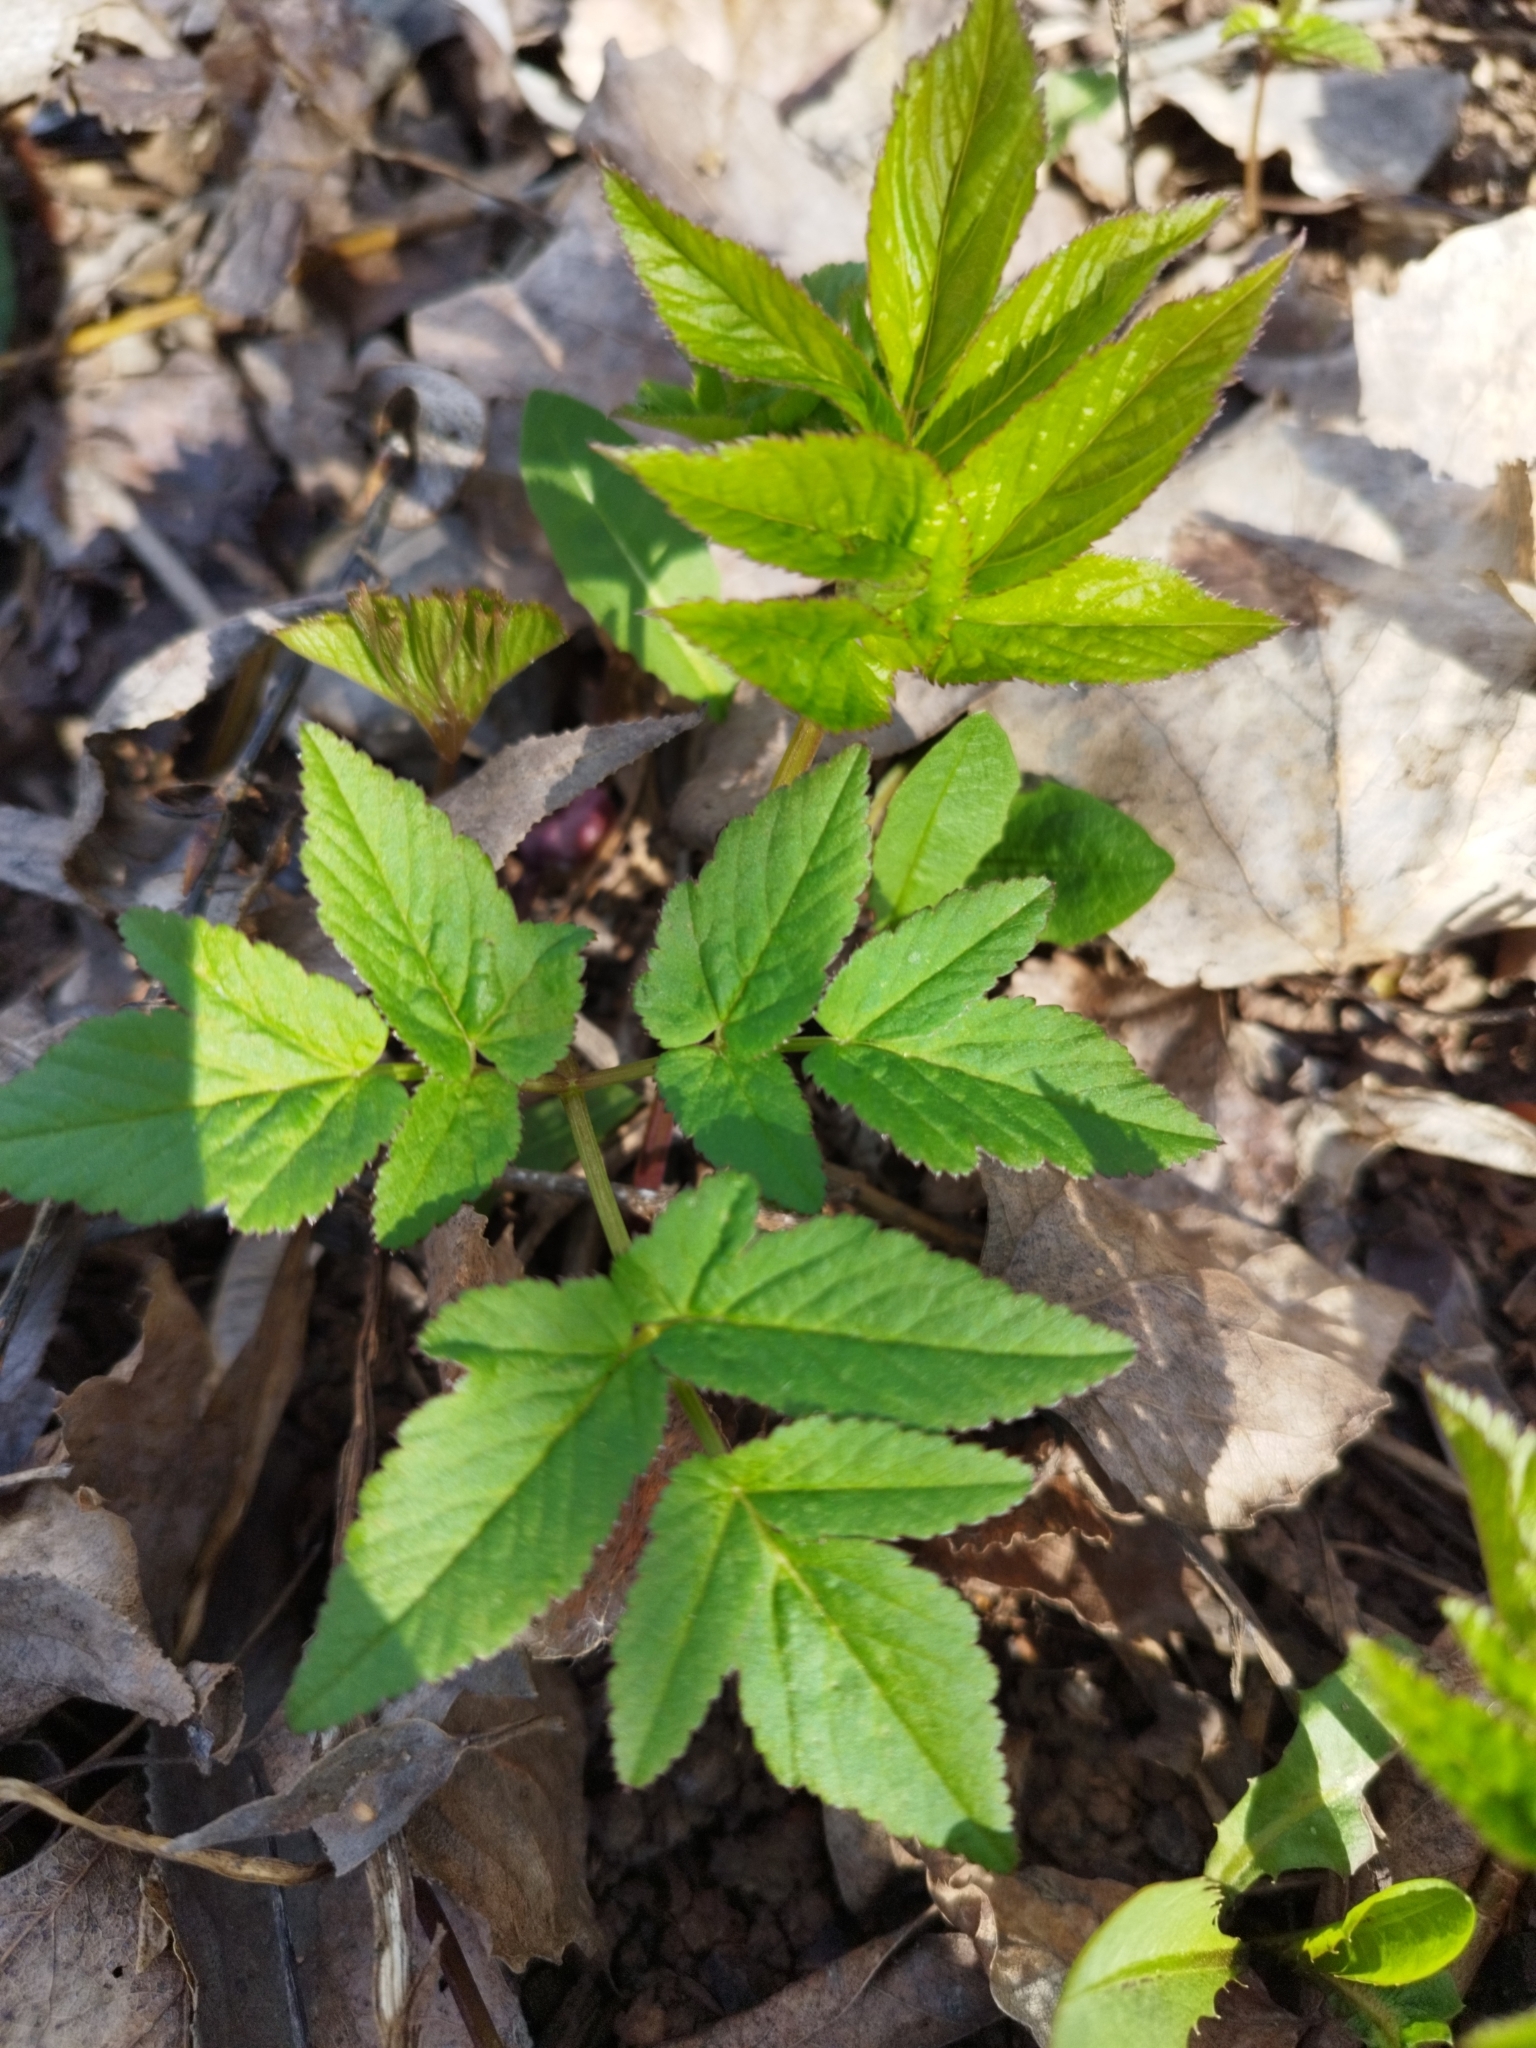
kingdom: Plantae
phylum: Tracheophyta
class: Magnoliopsida
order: Apiales
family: Apiaceae
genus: Aegopodium
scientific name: Aegopodium podagraria
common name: Ground-elder
